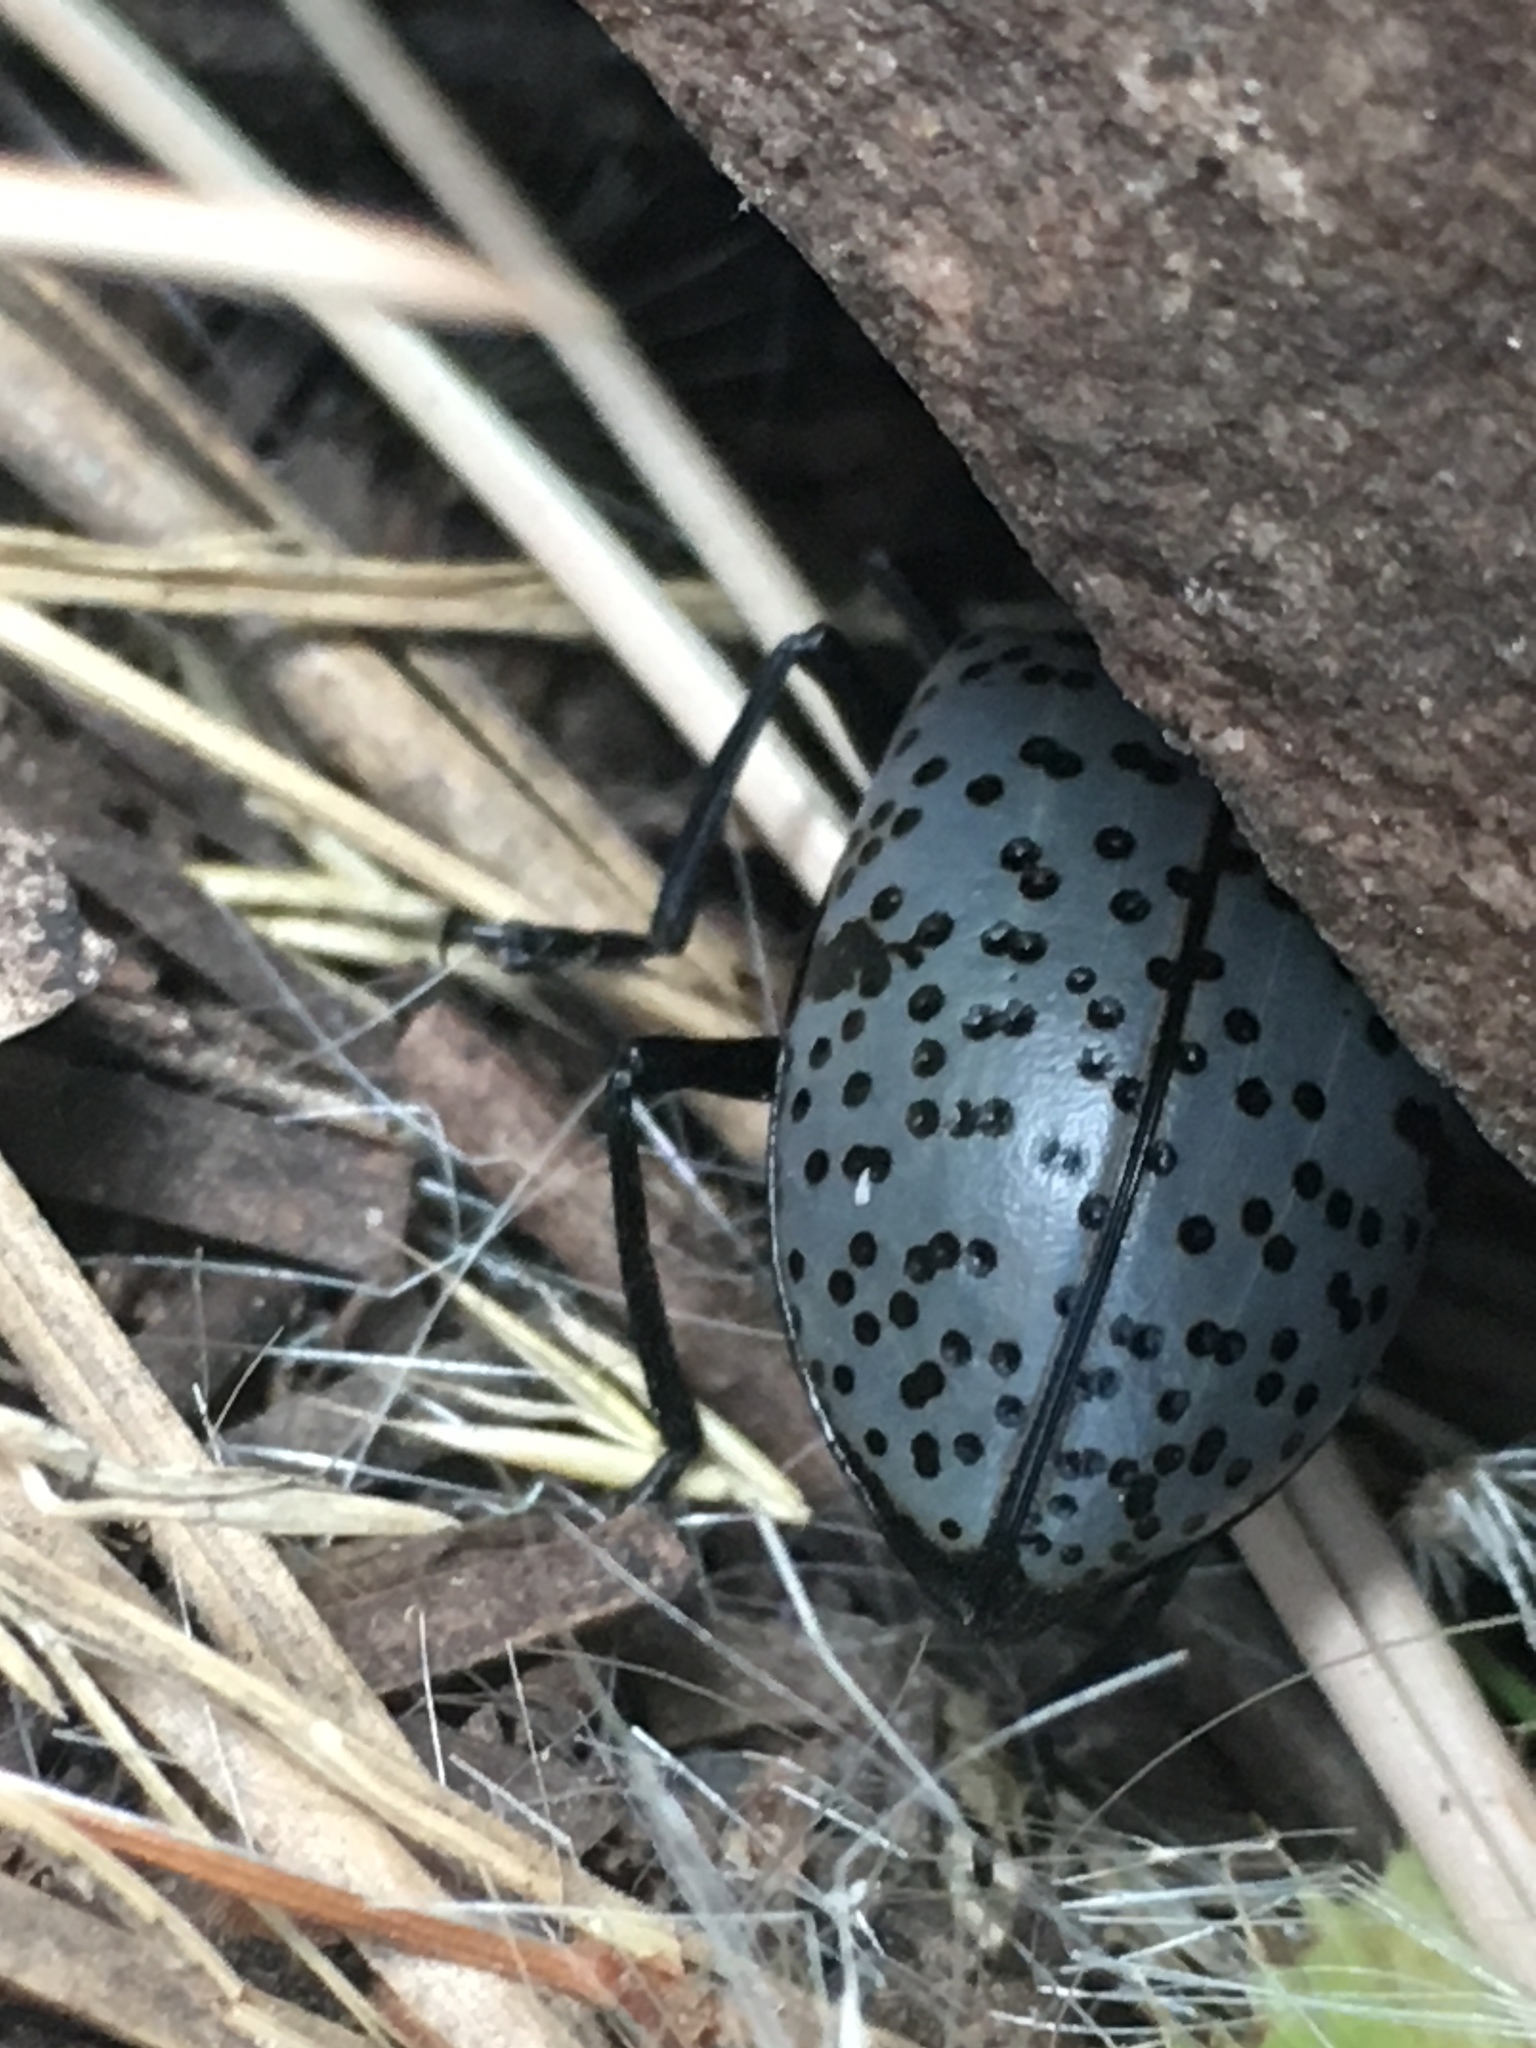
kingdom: Animalia
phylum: Arthropoda
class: Insecta
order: Coleoptera
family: Erotylidae
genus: Gibbifer
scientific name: Gibbifer californicus
